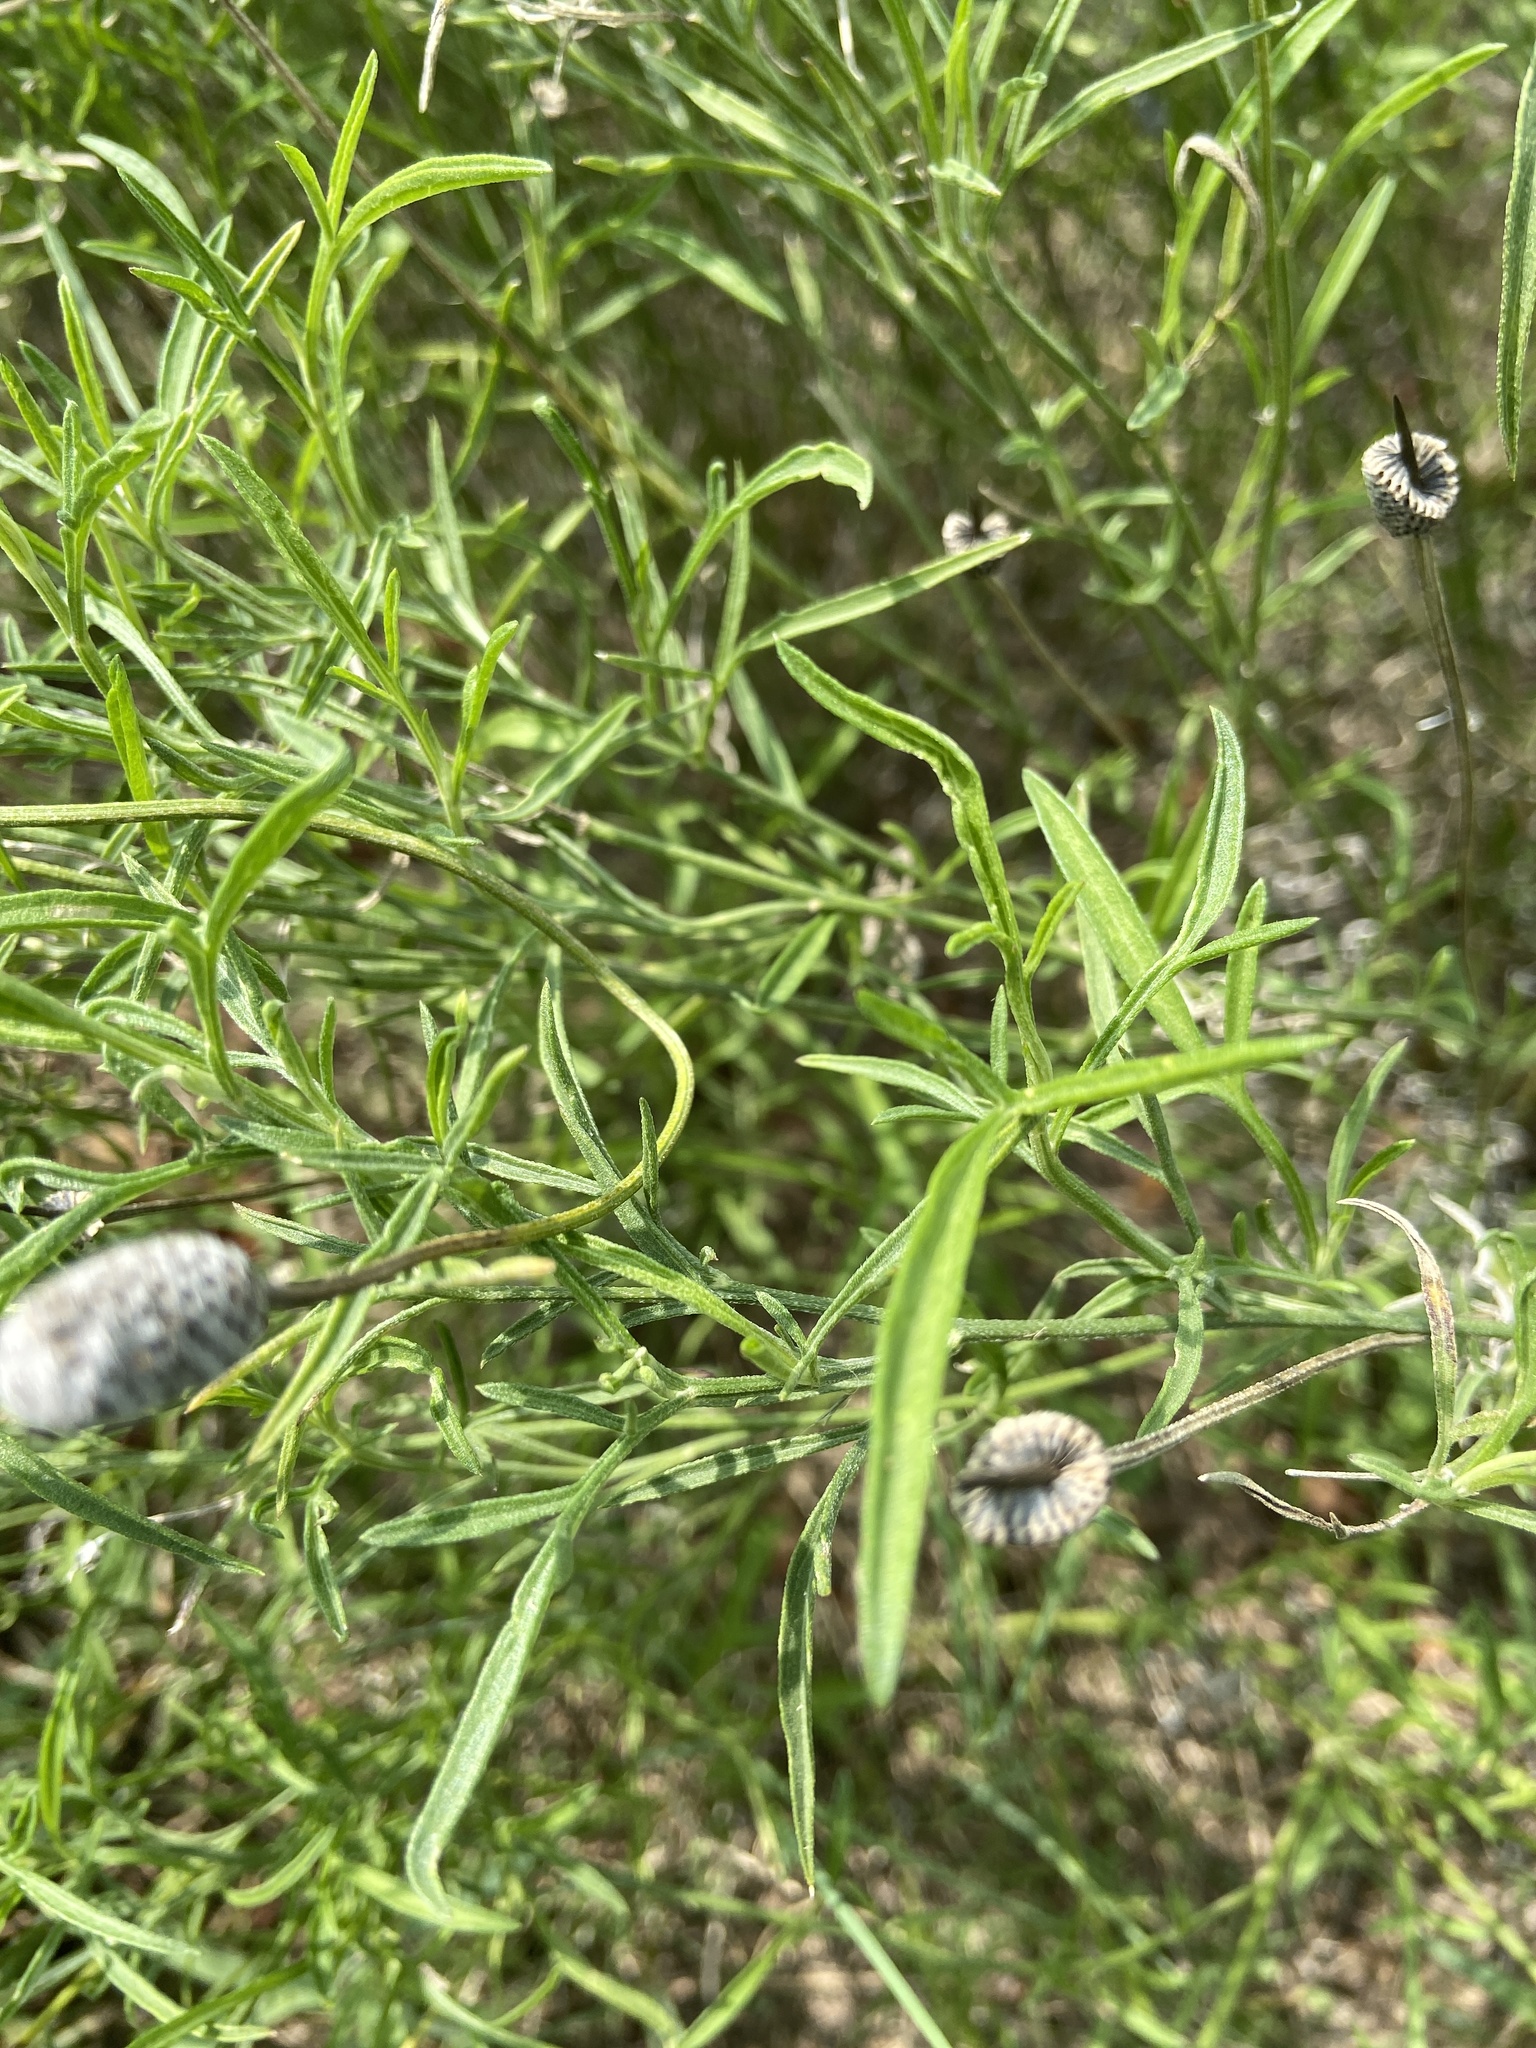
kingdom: Plantae
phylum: Tracheophyta
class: Magnoliopsida
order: Asterales
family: Asteraceae
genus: Ratibida
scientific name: Ratibida columnifera
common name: Prairie coneflower
